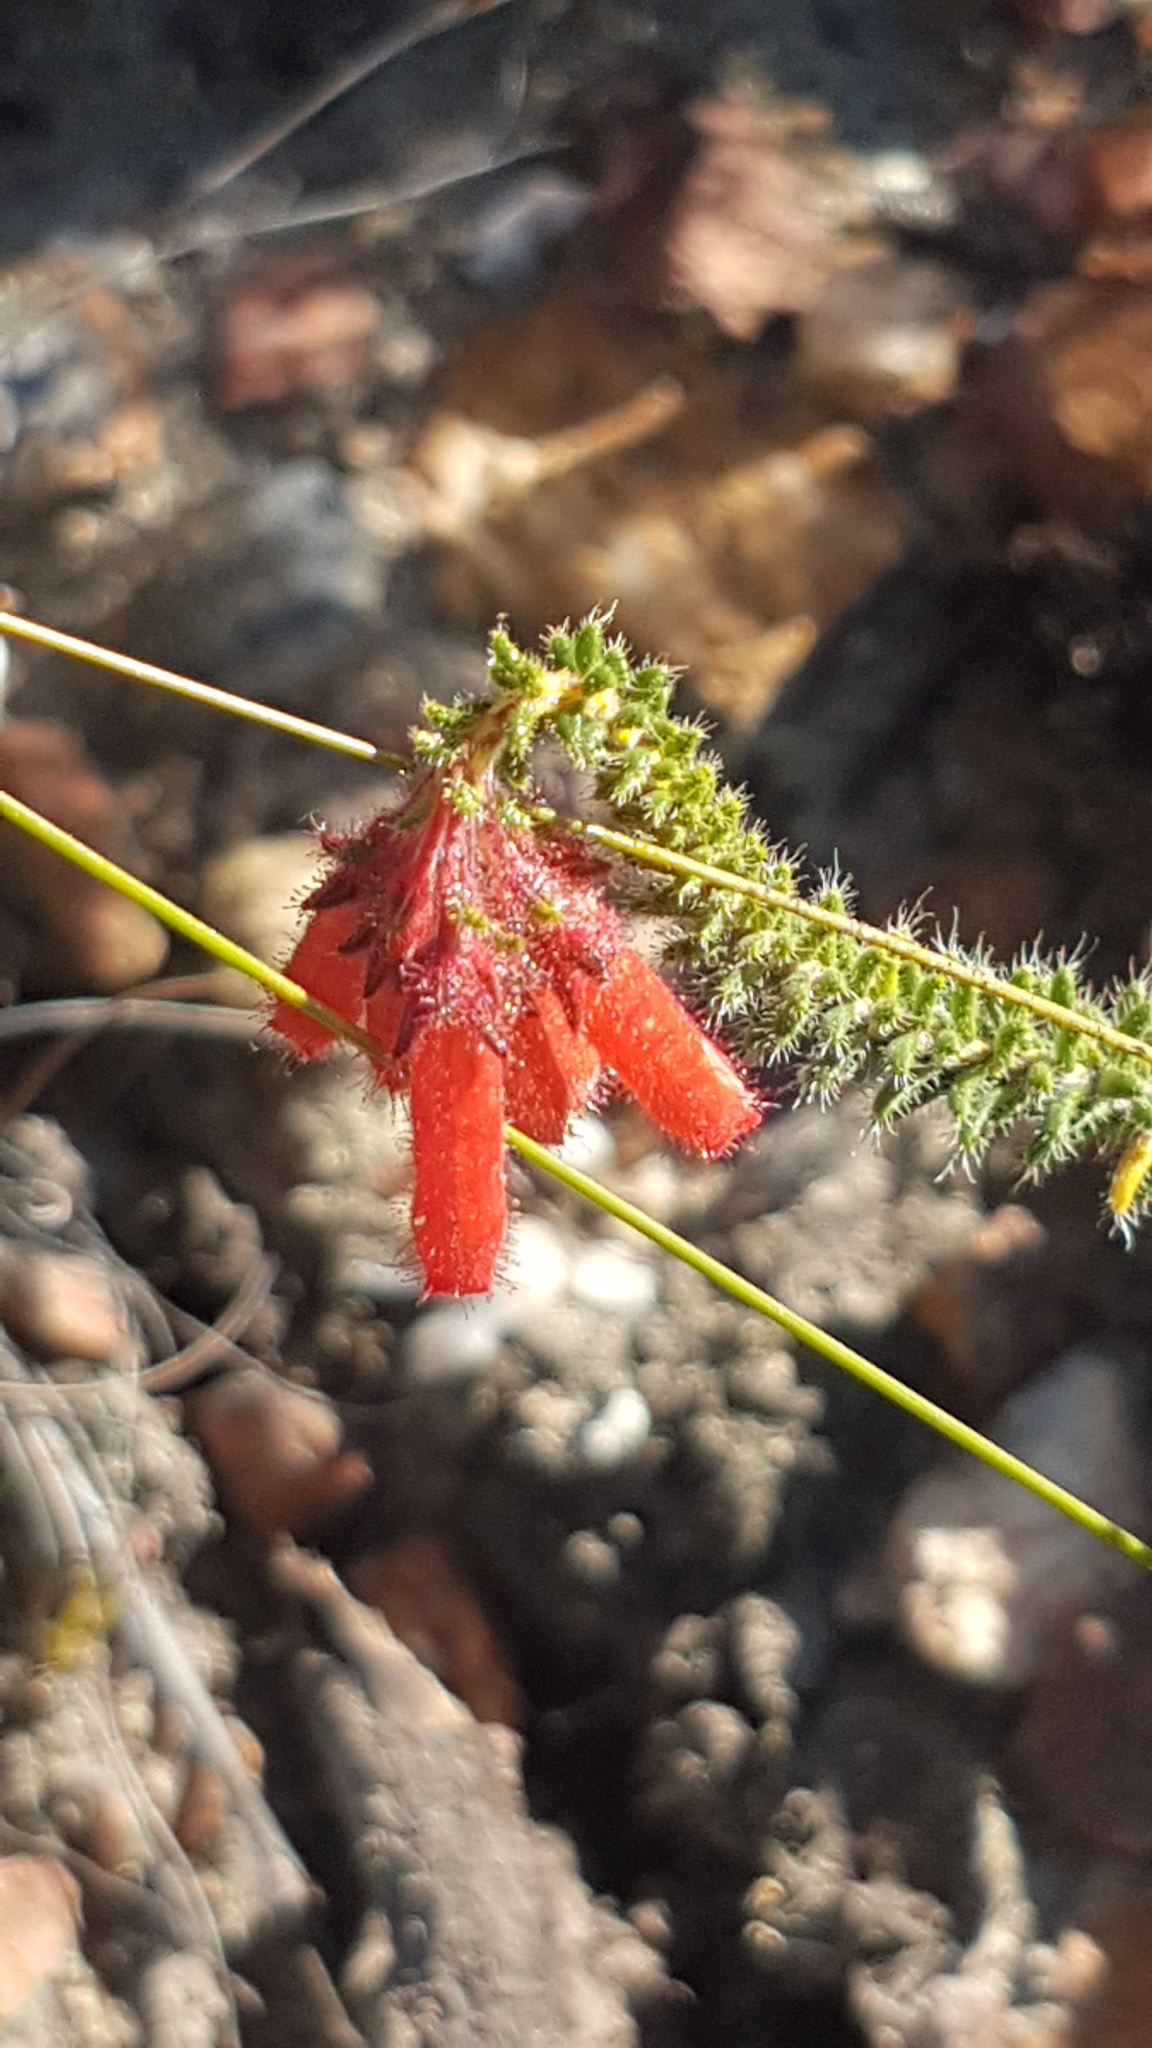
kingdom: Plantae
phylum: Tracheophyta
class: Magnoliopsida
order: Ericales
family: Ericaceae
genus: Erica
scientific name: Erica cerinthoides
